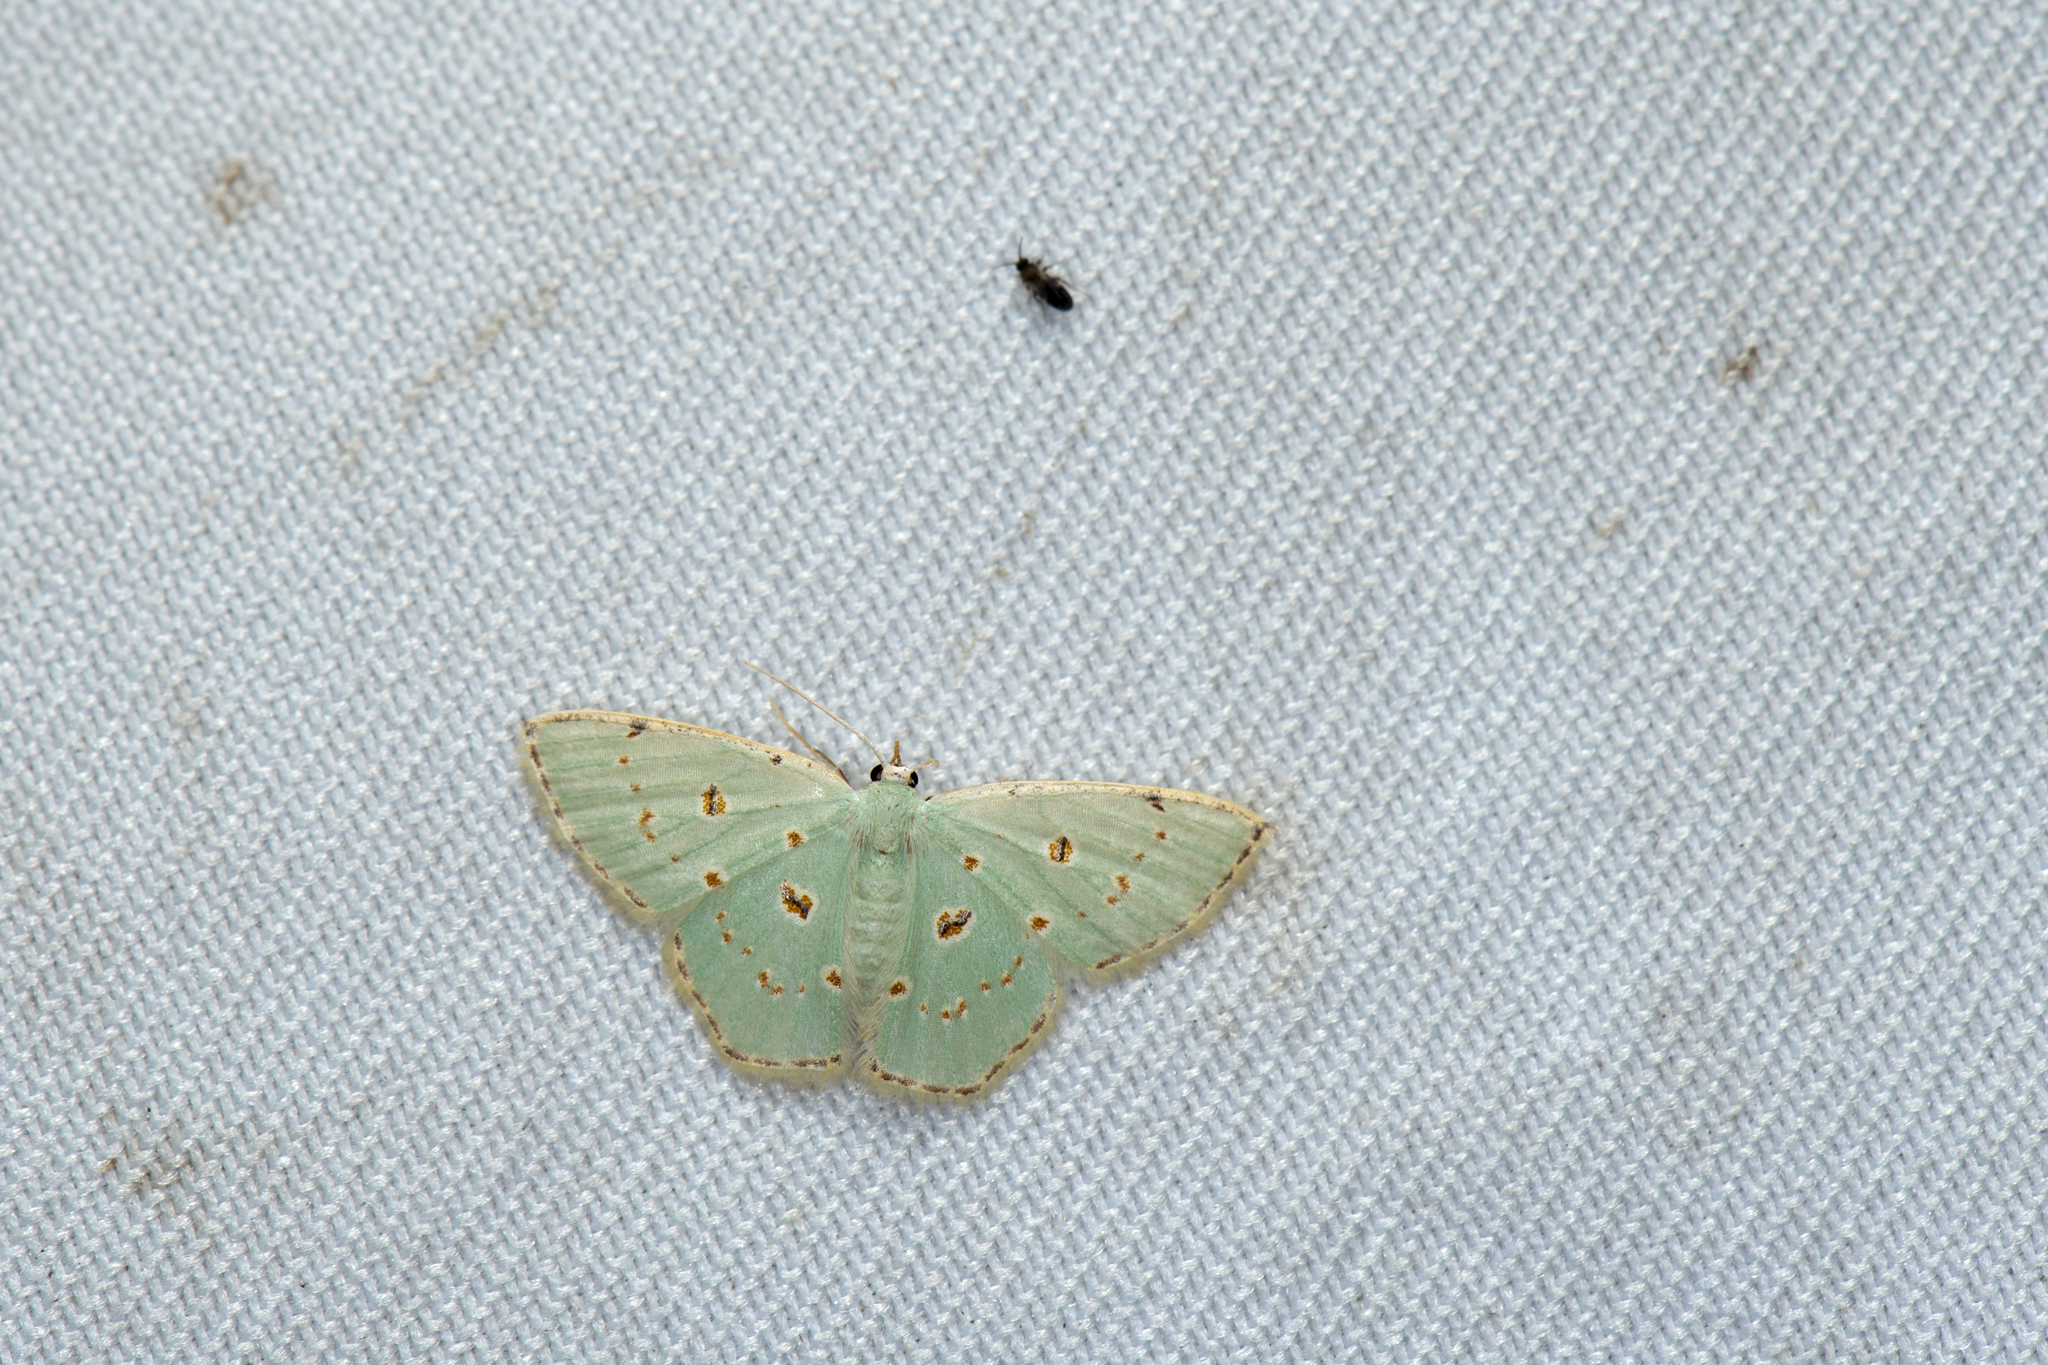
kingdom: Animalia
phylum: Arthropoda
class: Insecta
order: Lepidoptera
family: Geometridae
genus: Comostola
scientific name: Comostola laesaria
